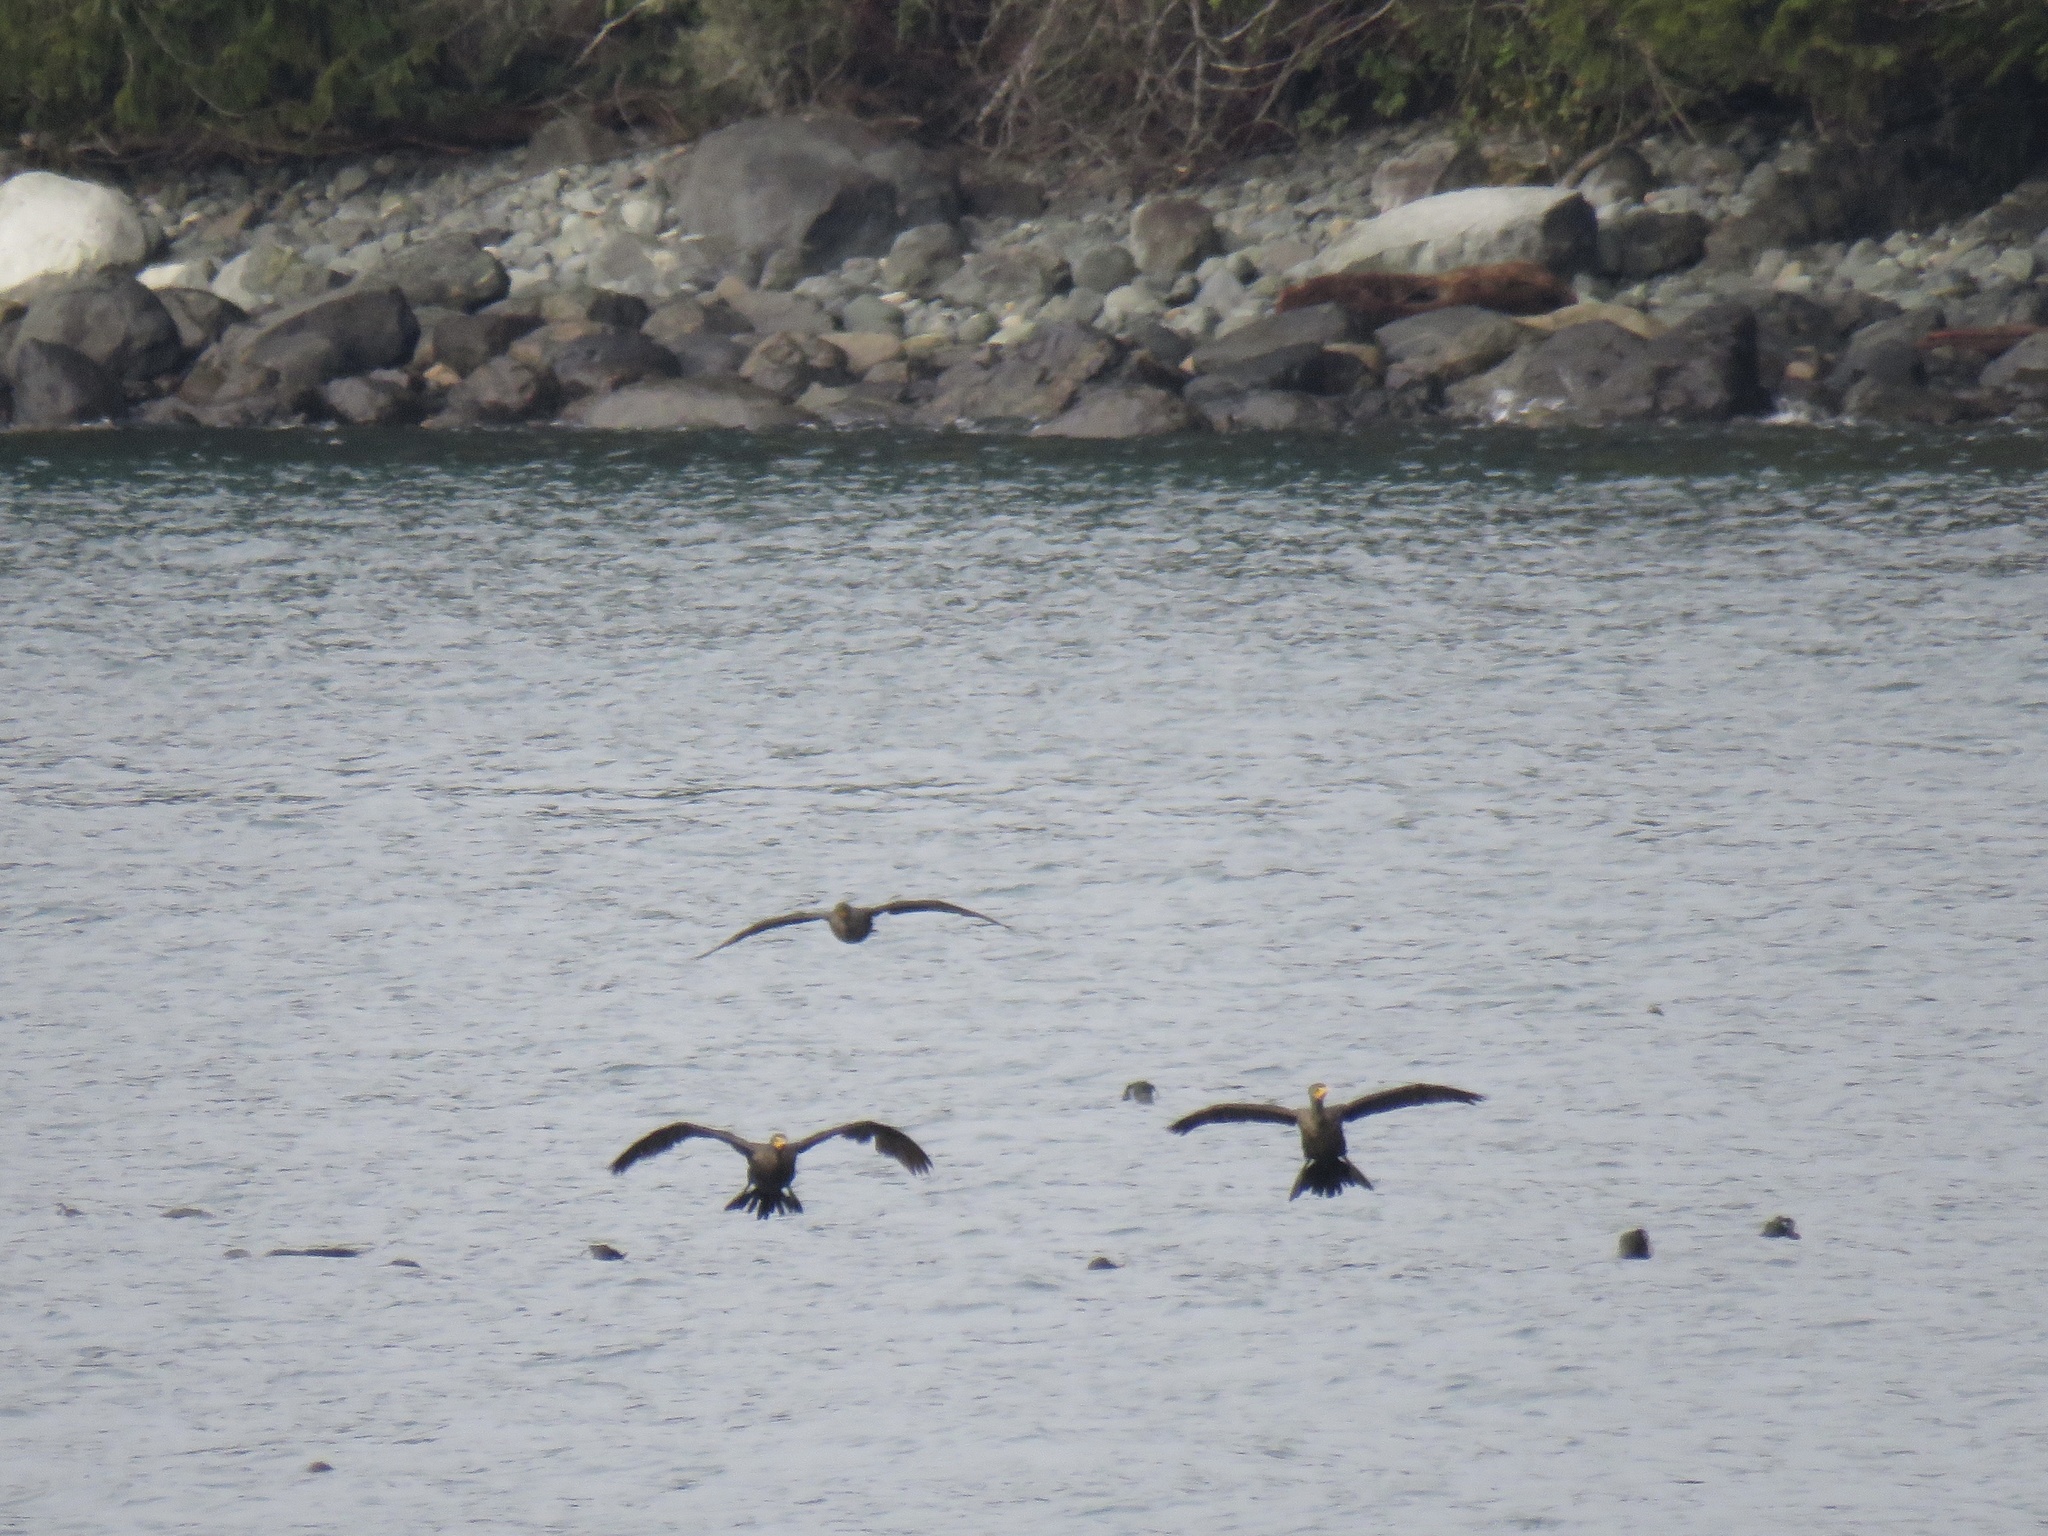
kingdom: Animalia
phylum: Chordata
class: Aves
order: Suliformes
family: Phalacrocoracidae
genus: Phalacrocorax
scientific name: Phalacrocorax auritus
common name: Double-crested cormorant
